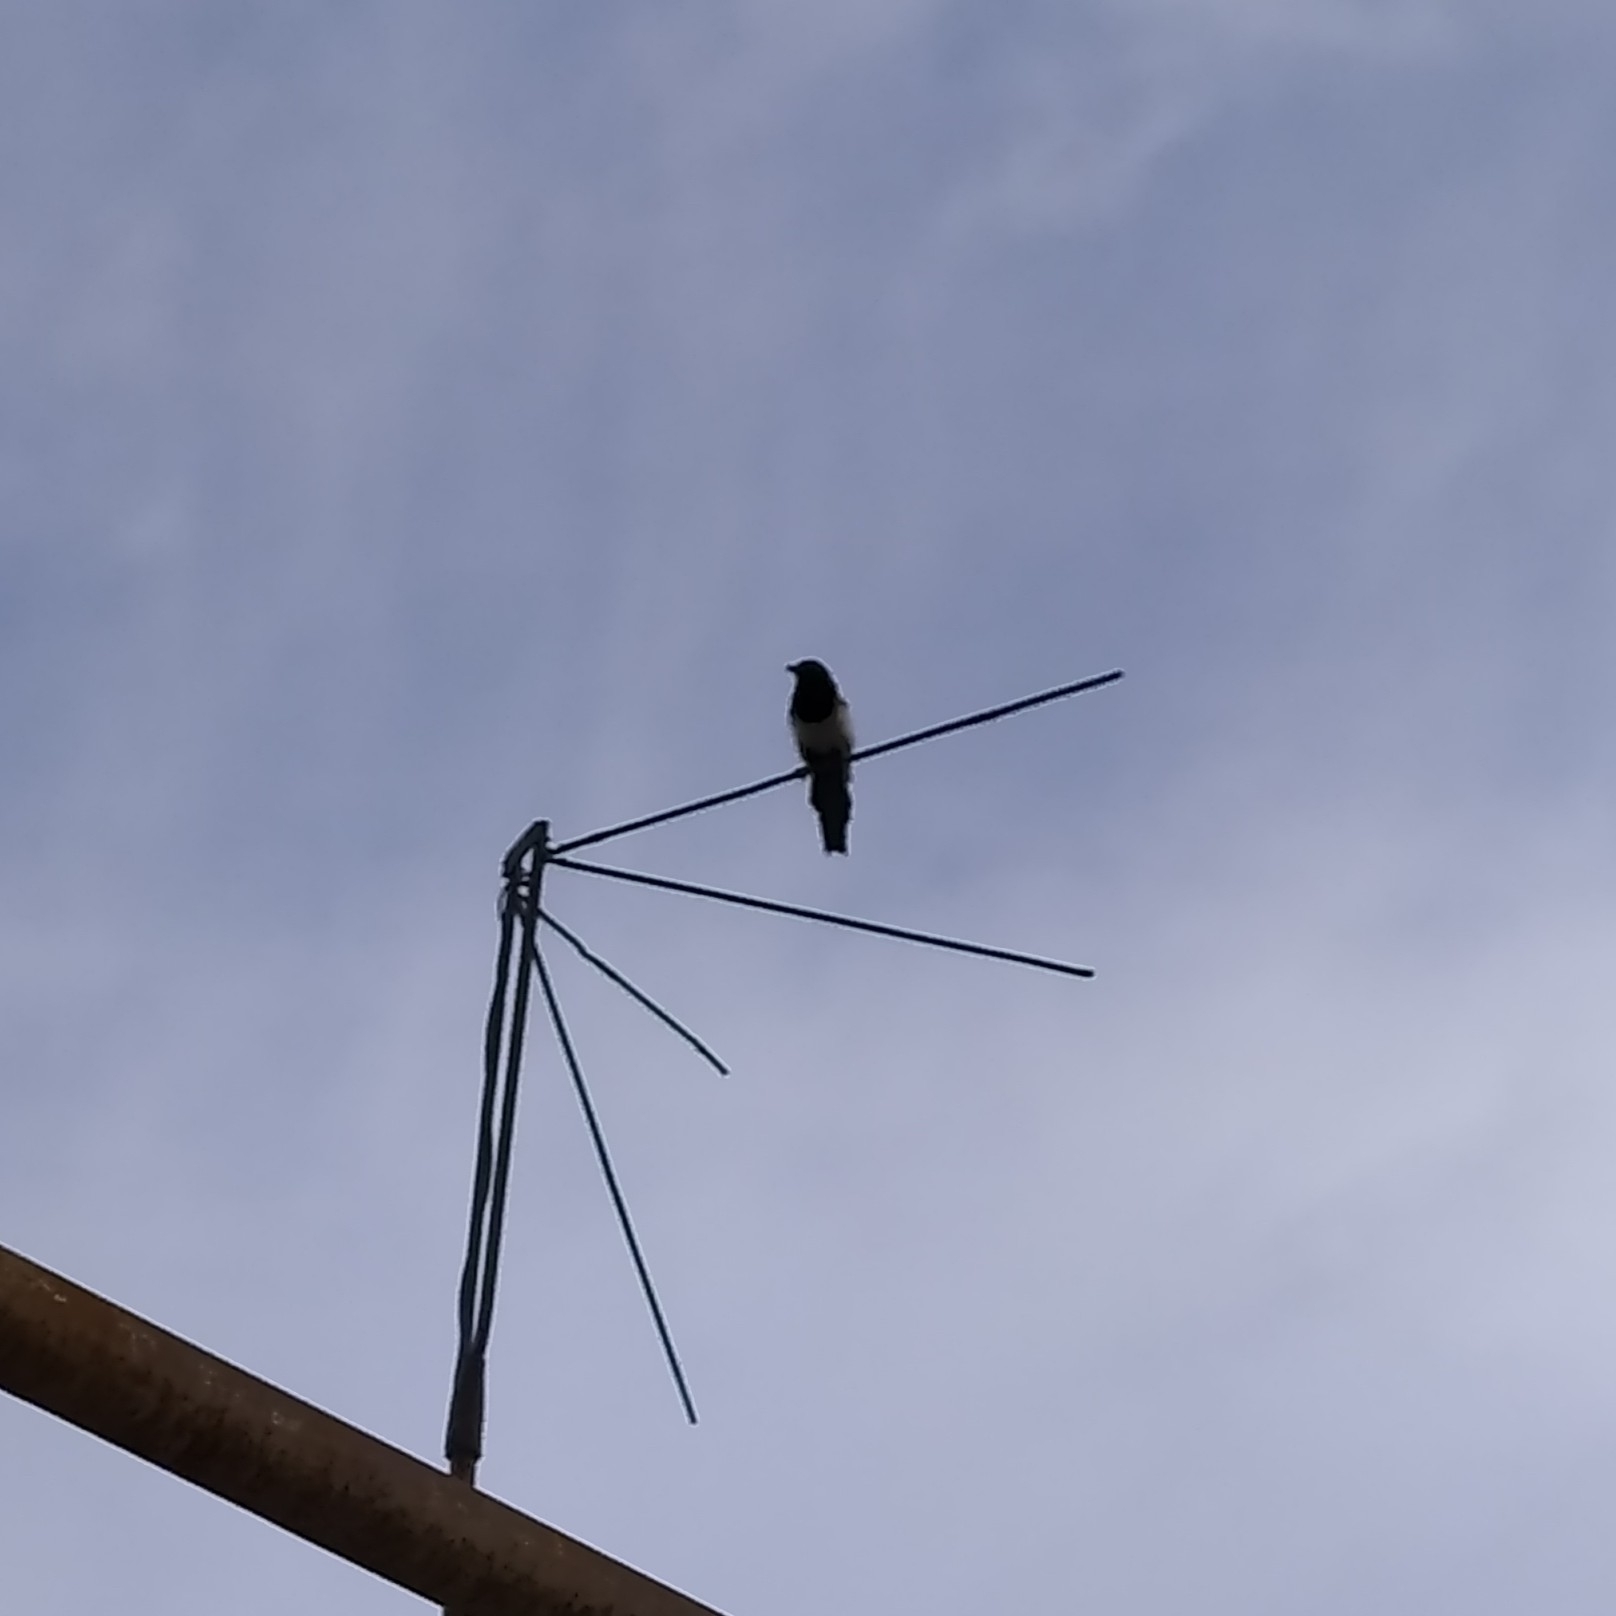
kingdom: Animalia
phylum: Chordata
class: Aves
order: Passeriformes
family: Corvidae
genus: Pica
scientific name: Pica pica
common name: Eurasian magpie
